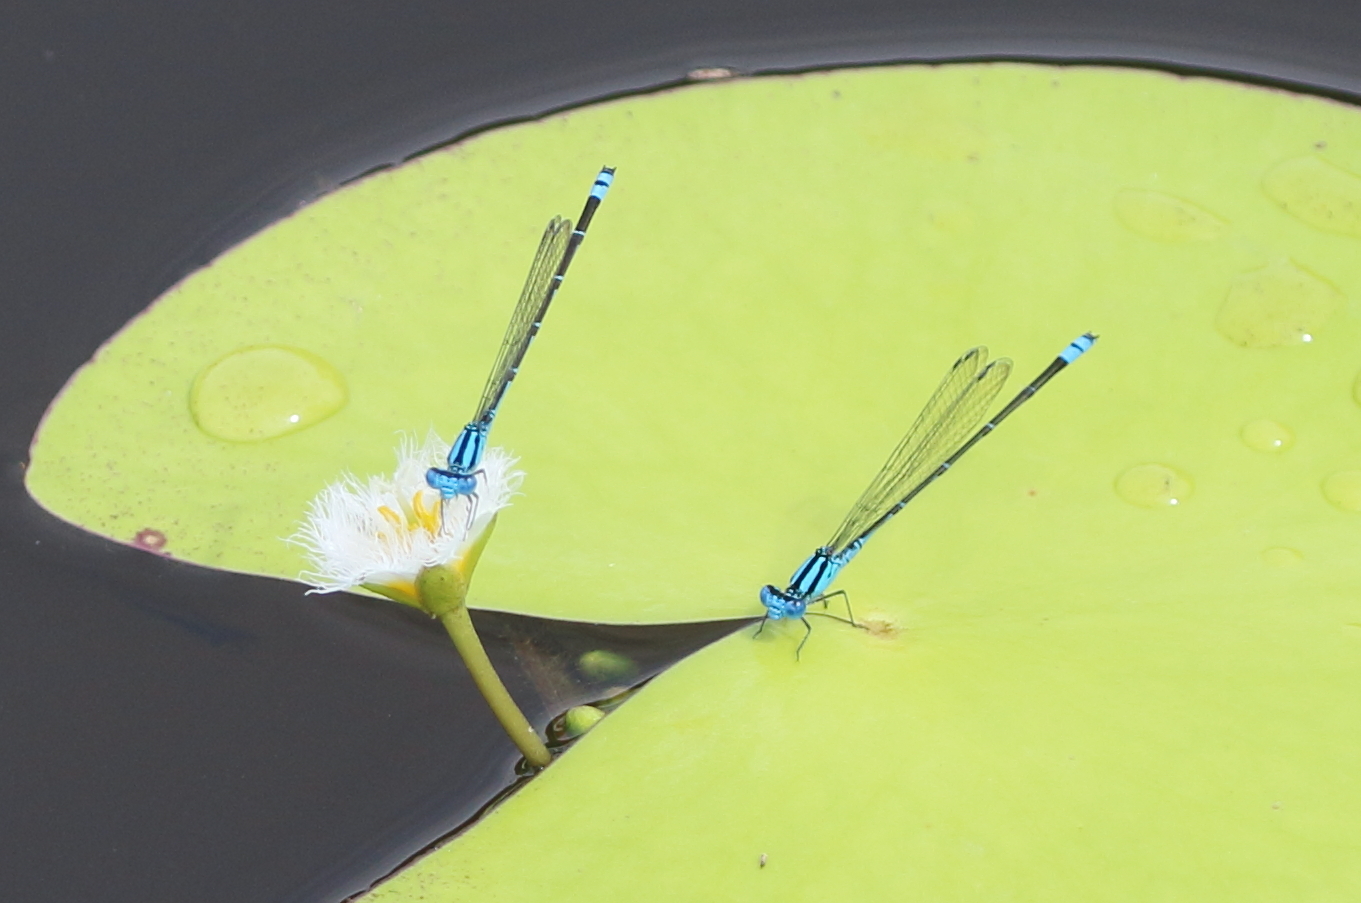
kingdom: Animalia
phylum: Arthropoda
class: Insecta
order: Odonata
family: Coenagrionidae
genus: Pseudagrion
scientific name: Pseudagrion microcephalum
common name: Blue riverdamsel
